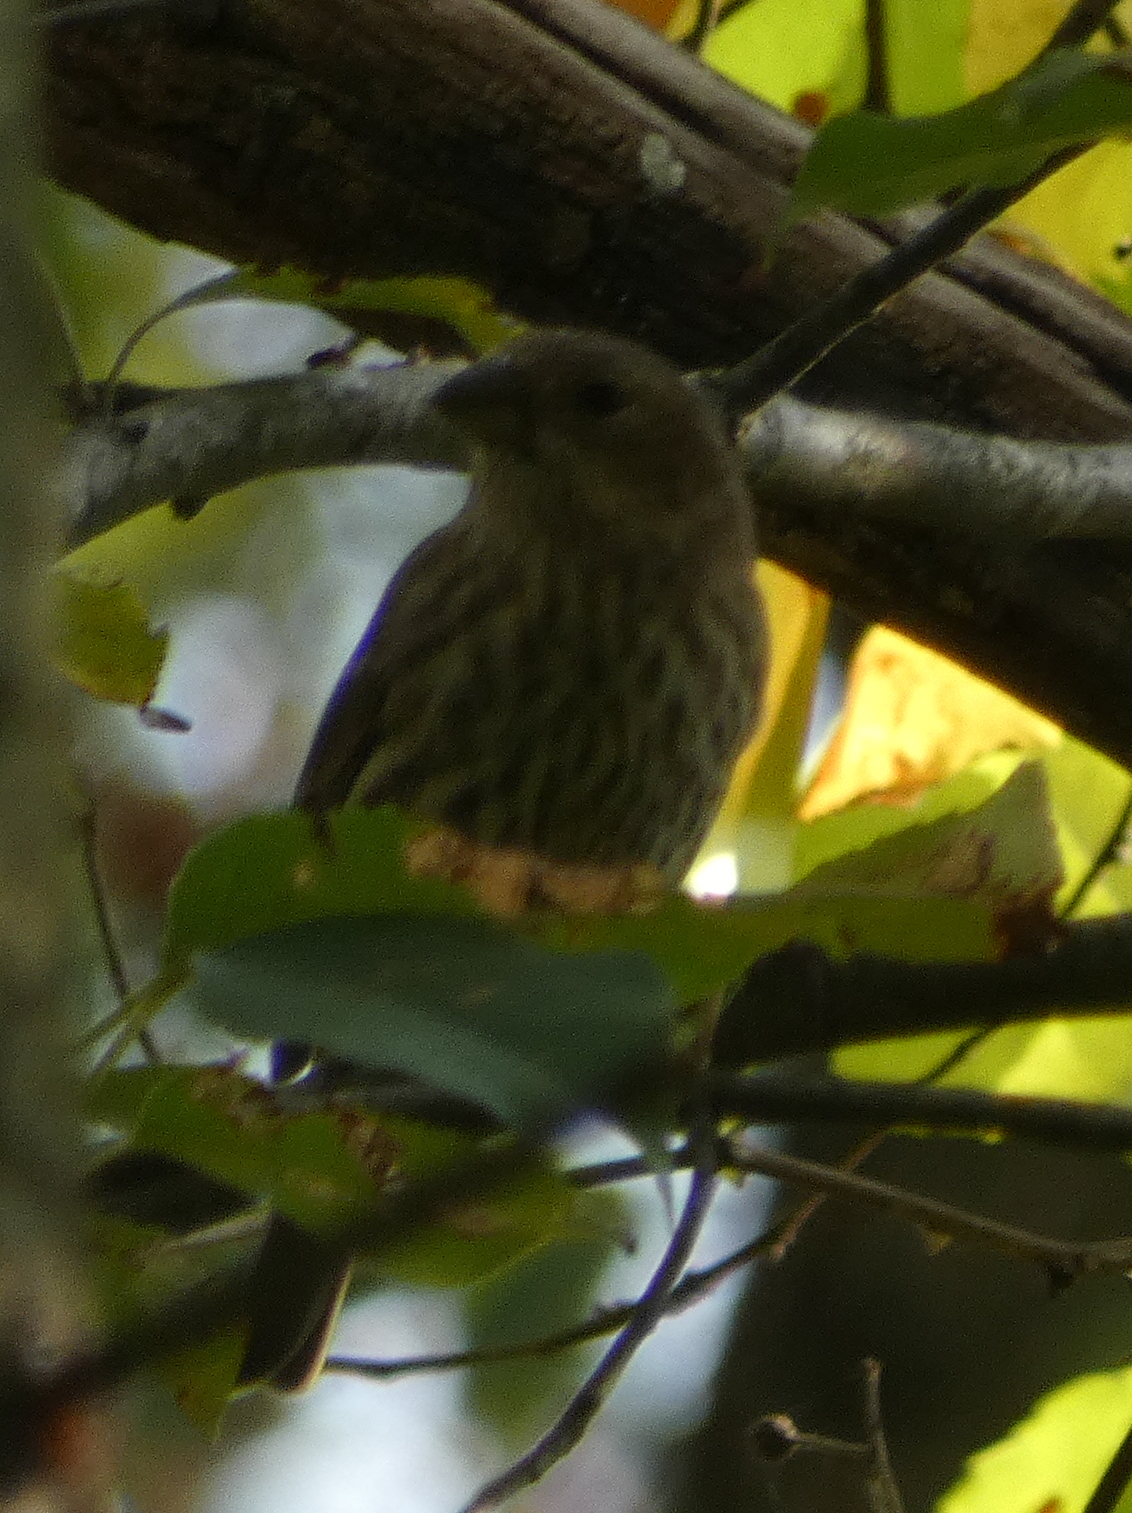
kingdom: Animalia
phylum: Chordata
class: Aves
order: Passeriformes
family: Fringillidae
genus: Haemorhous
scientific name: Haemorhous mexicanus
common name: House finch
